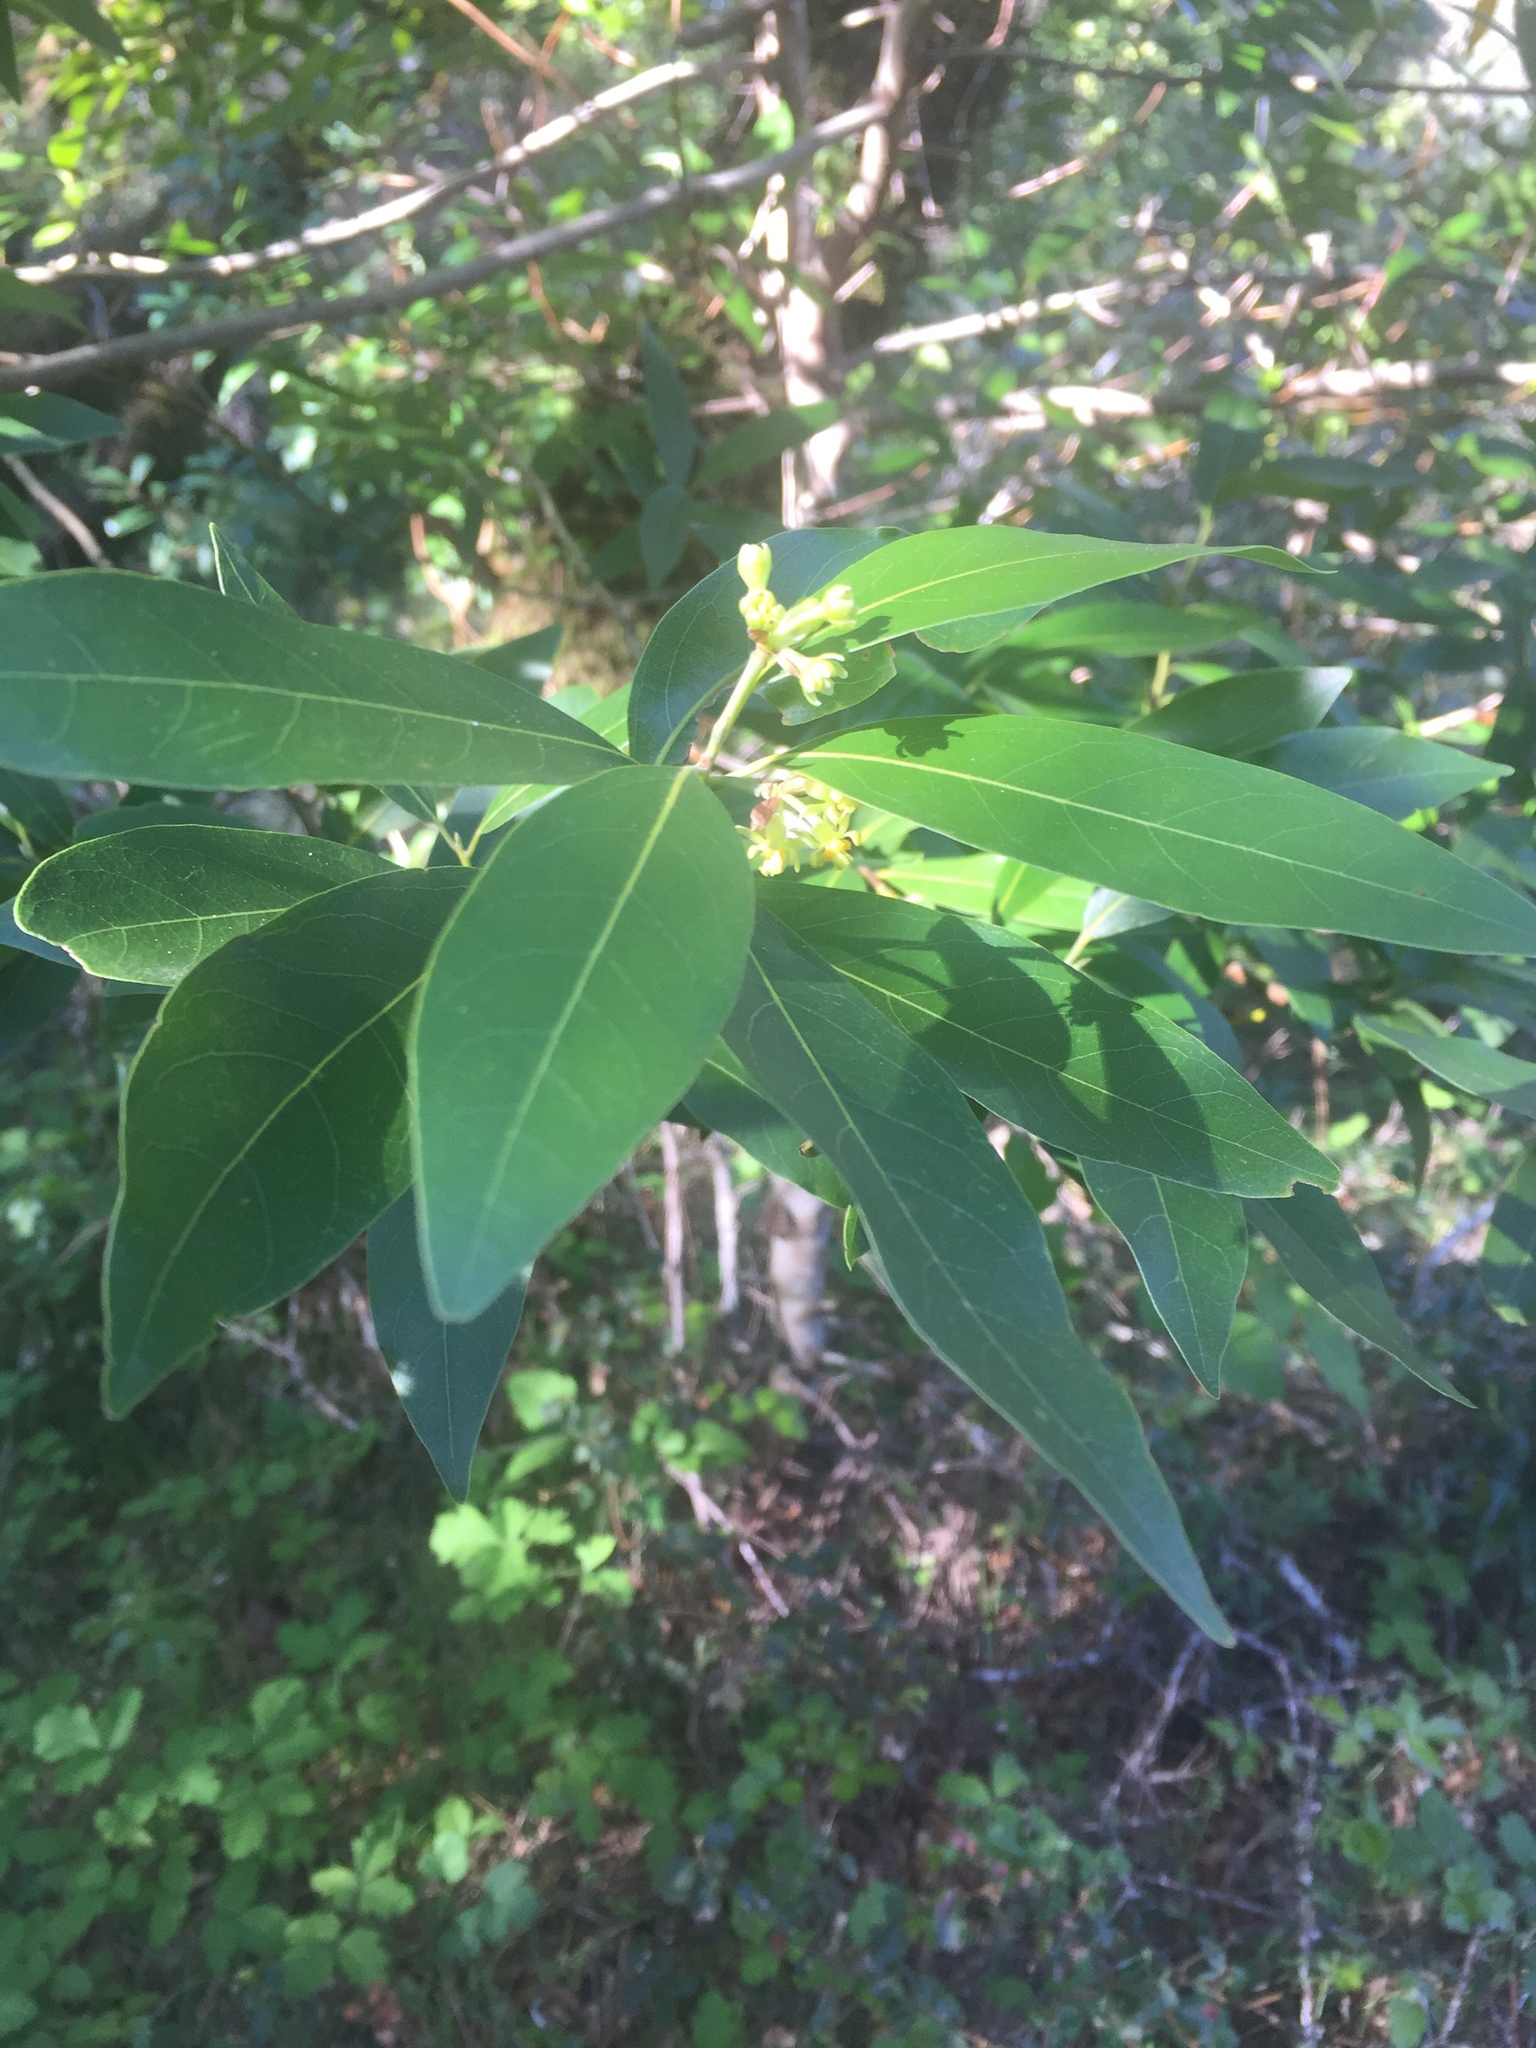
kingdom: Plantae
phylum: Tracheophyta
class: Magnoliopsida
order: Laurales
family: Lauraceae
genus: Umbellularia
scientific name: Umbellularia californica
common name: California bay
